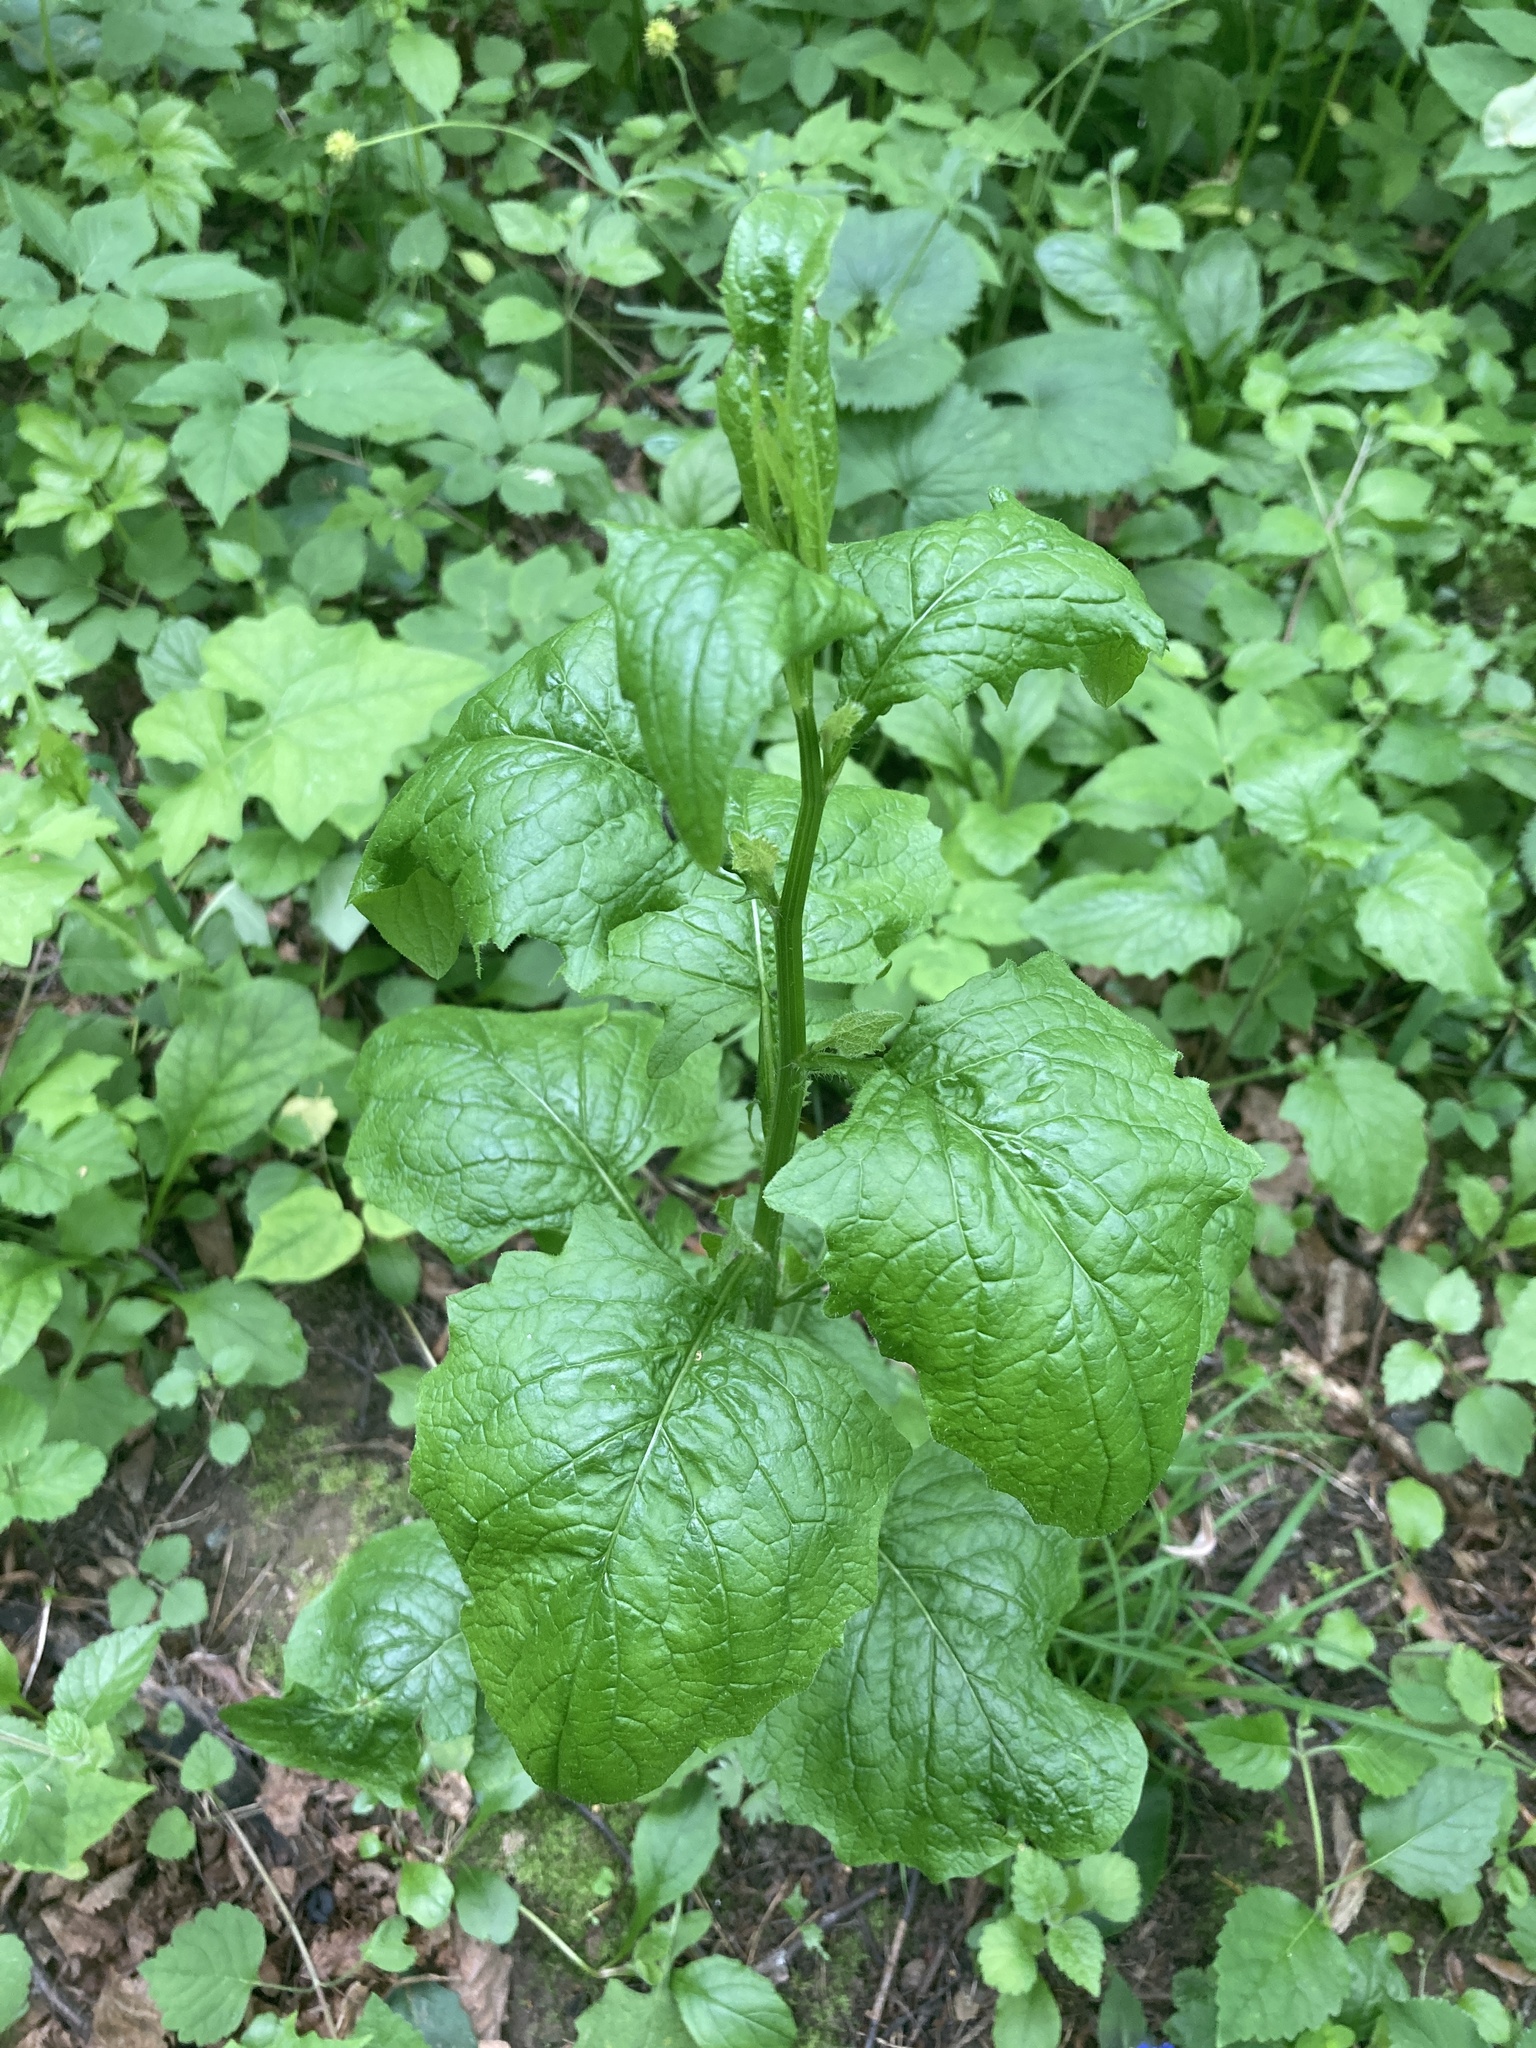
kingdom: Plantae
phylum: Tracheophyta
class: Magnoliopsida
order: Asterales
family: Asteraceae
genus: Lapsana
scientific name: Lapsana communis
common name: Nipplewort
